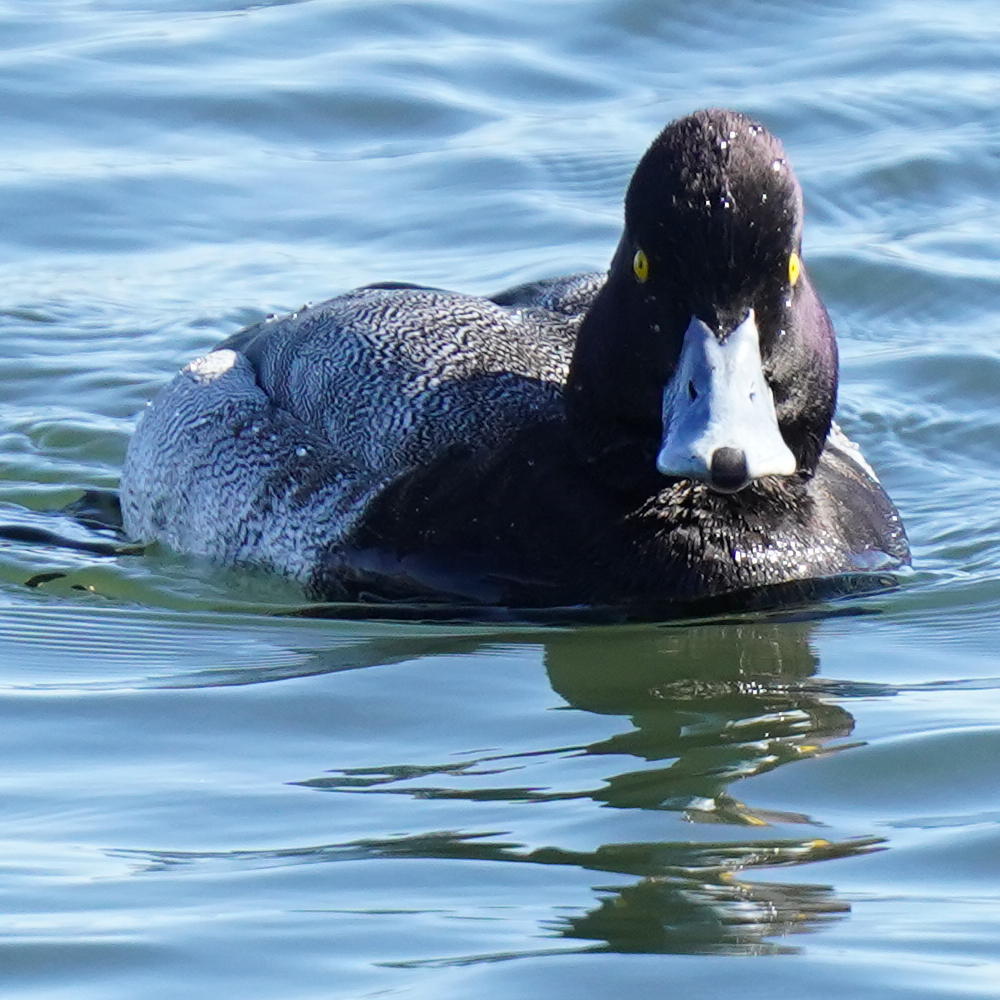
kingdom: Animalia
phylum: Chordata
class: Aves
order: Anseriformes
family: Anatidae
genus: Aythya
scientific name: Aythya affinis
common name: Lesser scaup
